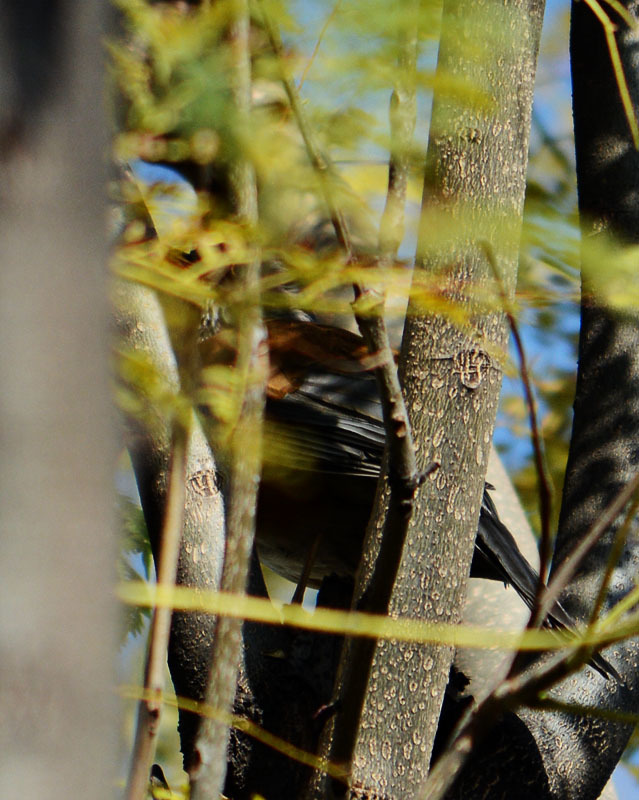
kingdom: Animalia
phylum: Chordata
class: Aves
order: Passeriformes
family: Turdidae
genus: Turdus
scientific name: Turdus rufopalliatus
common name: Rufous-backed robin
